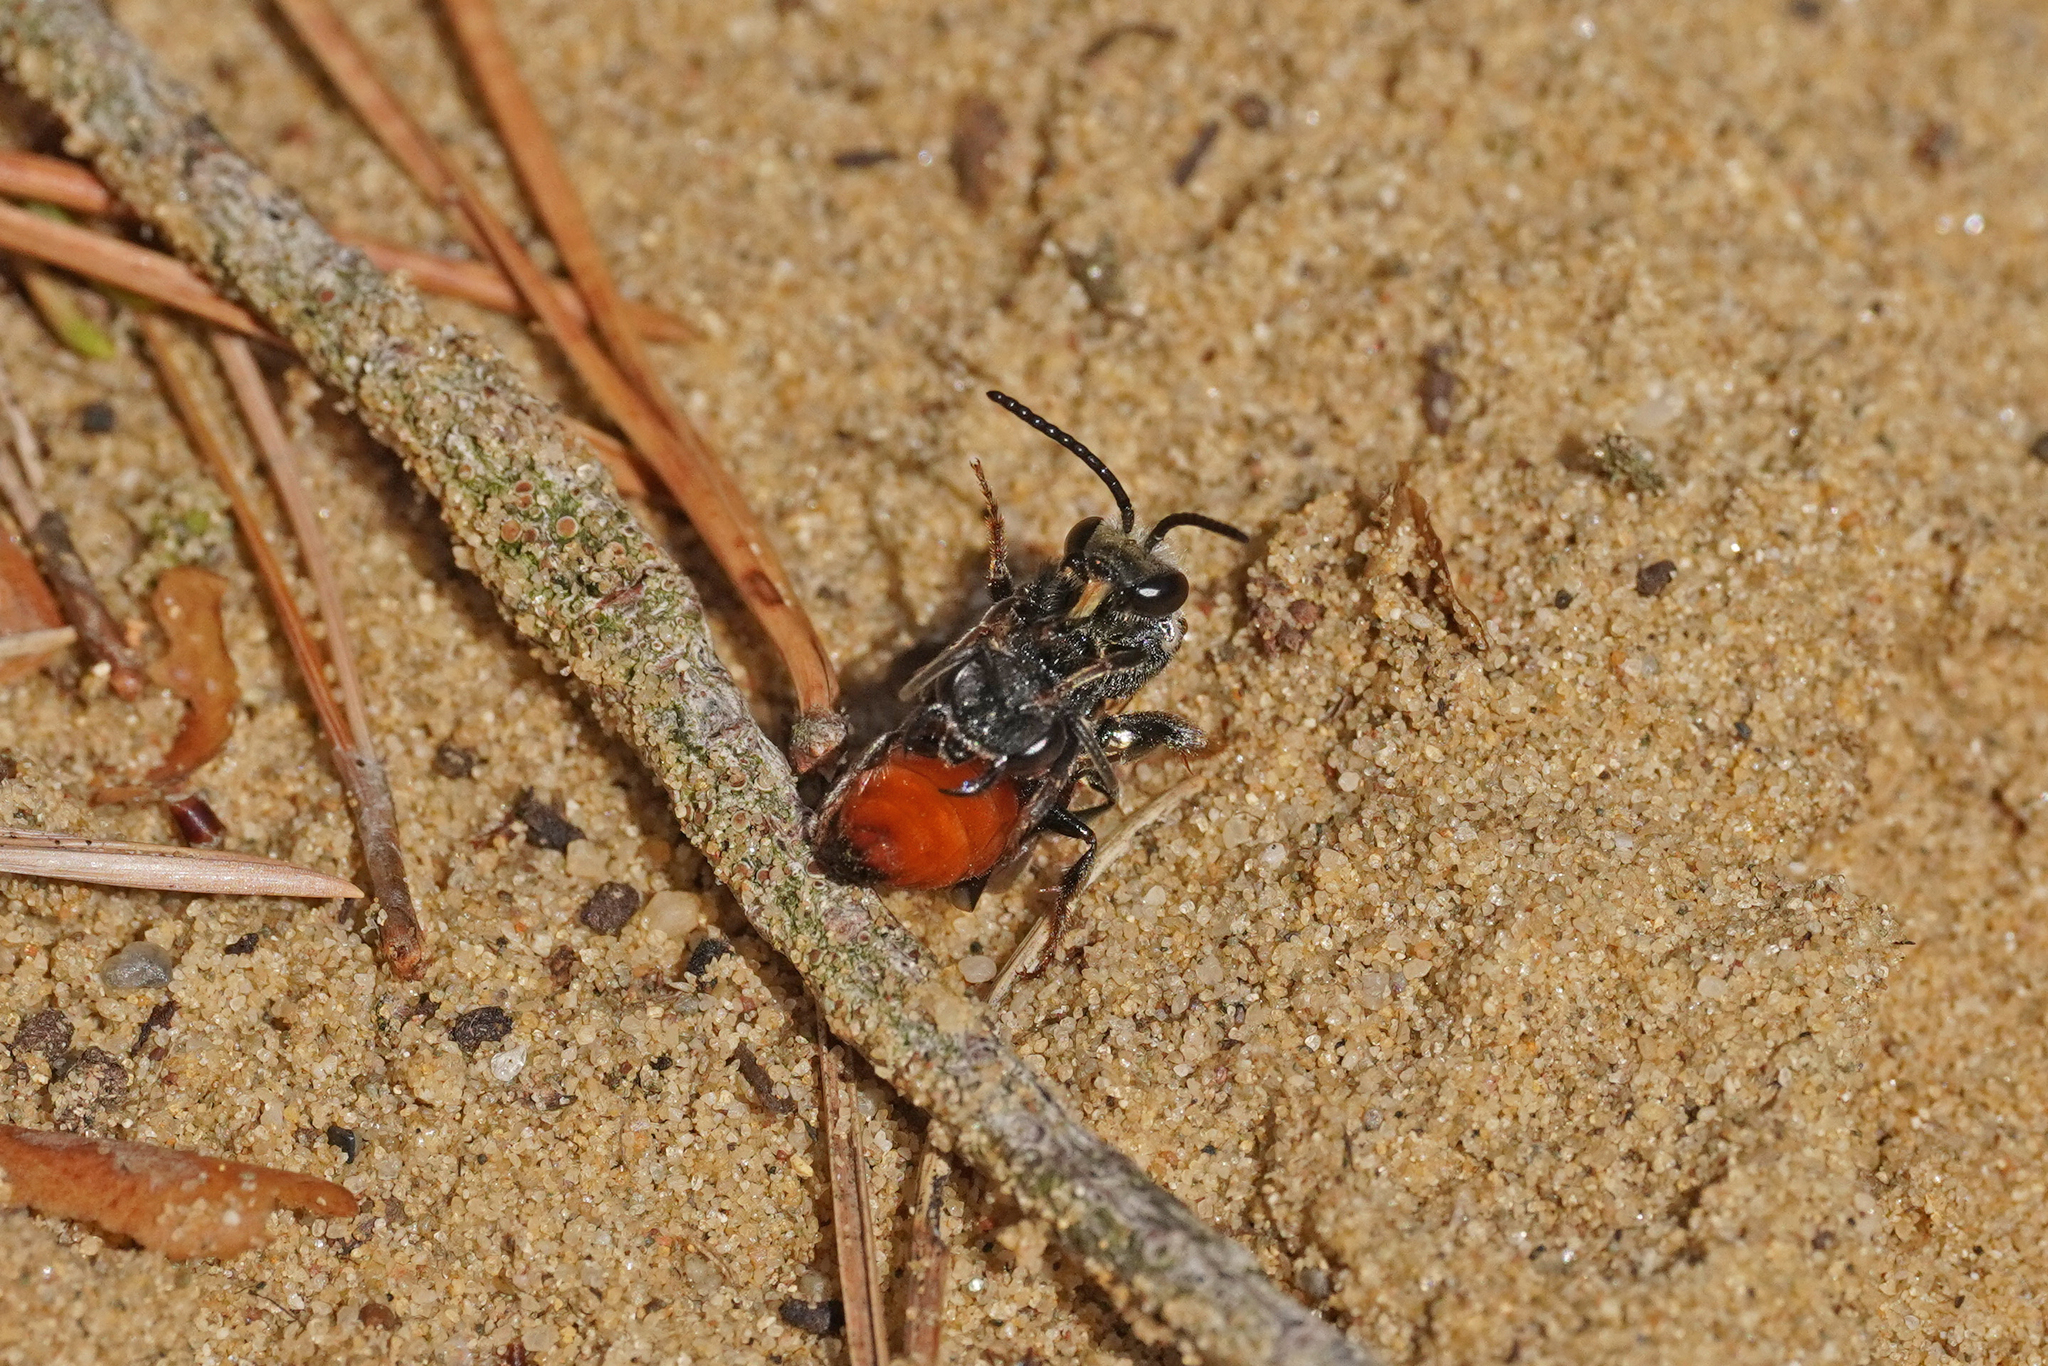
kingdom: Animalia
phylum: Arthropoda
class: Insecta
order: Hymenoptera
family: Halictidae
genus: Sphecodes
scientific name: Sphecodes albilabris
